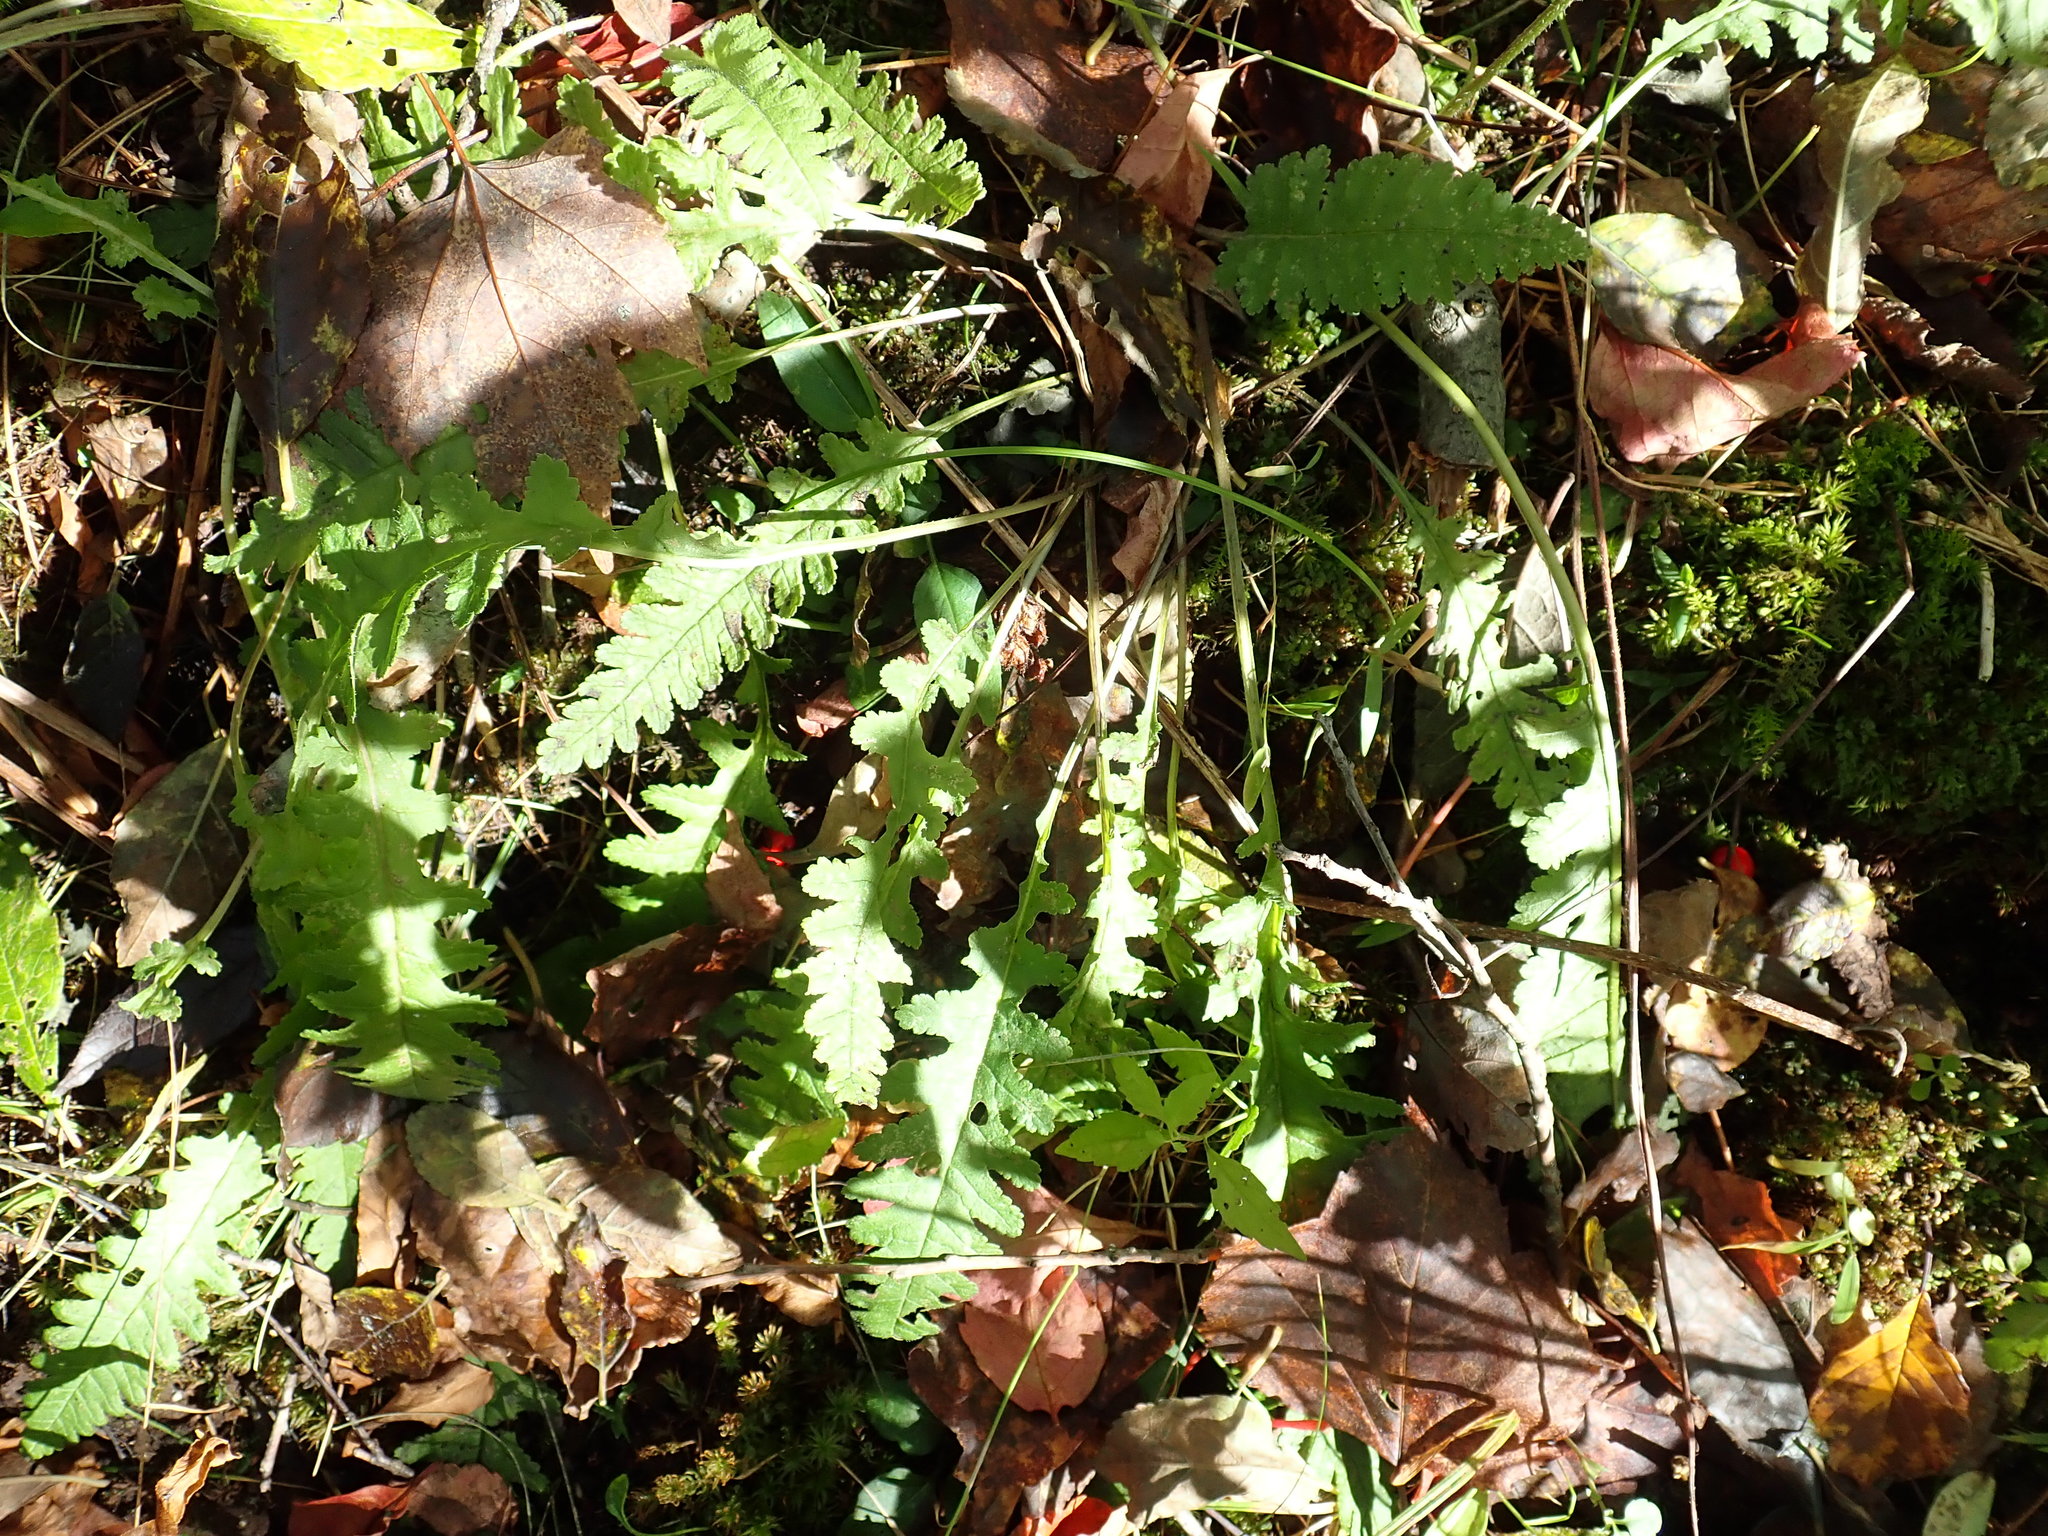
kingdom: Plantae
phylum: Tracheophyta
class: Magnoliopsida
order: Lamiales
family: Orobanchaceae
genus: Pedicularis
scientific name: Pedicularis canadensis
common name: Early lousewort
